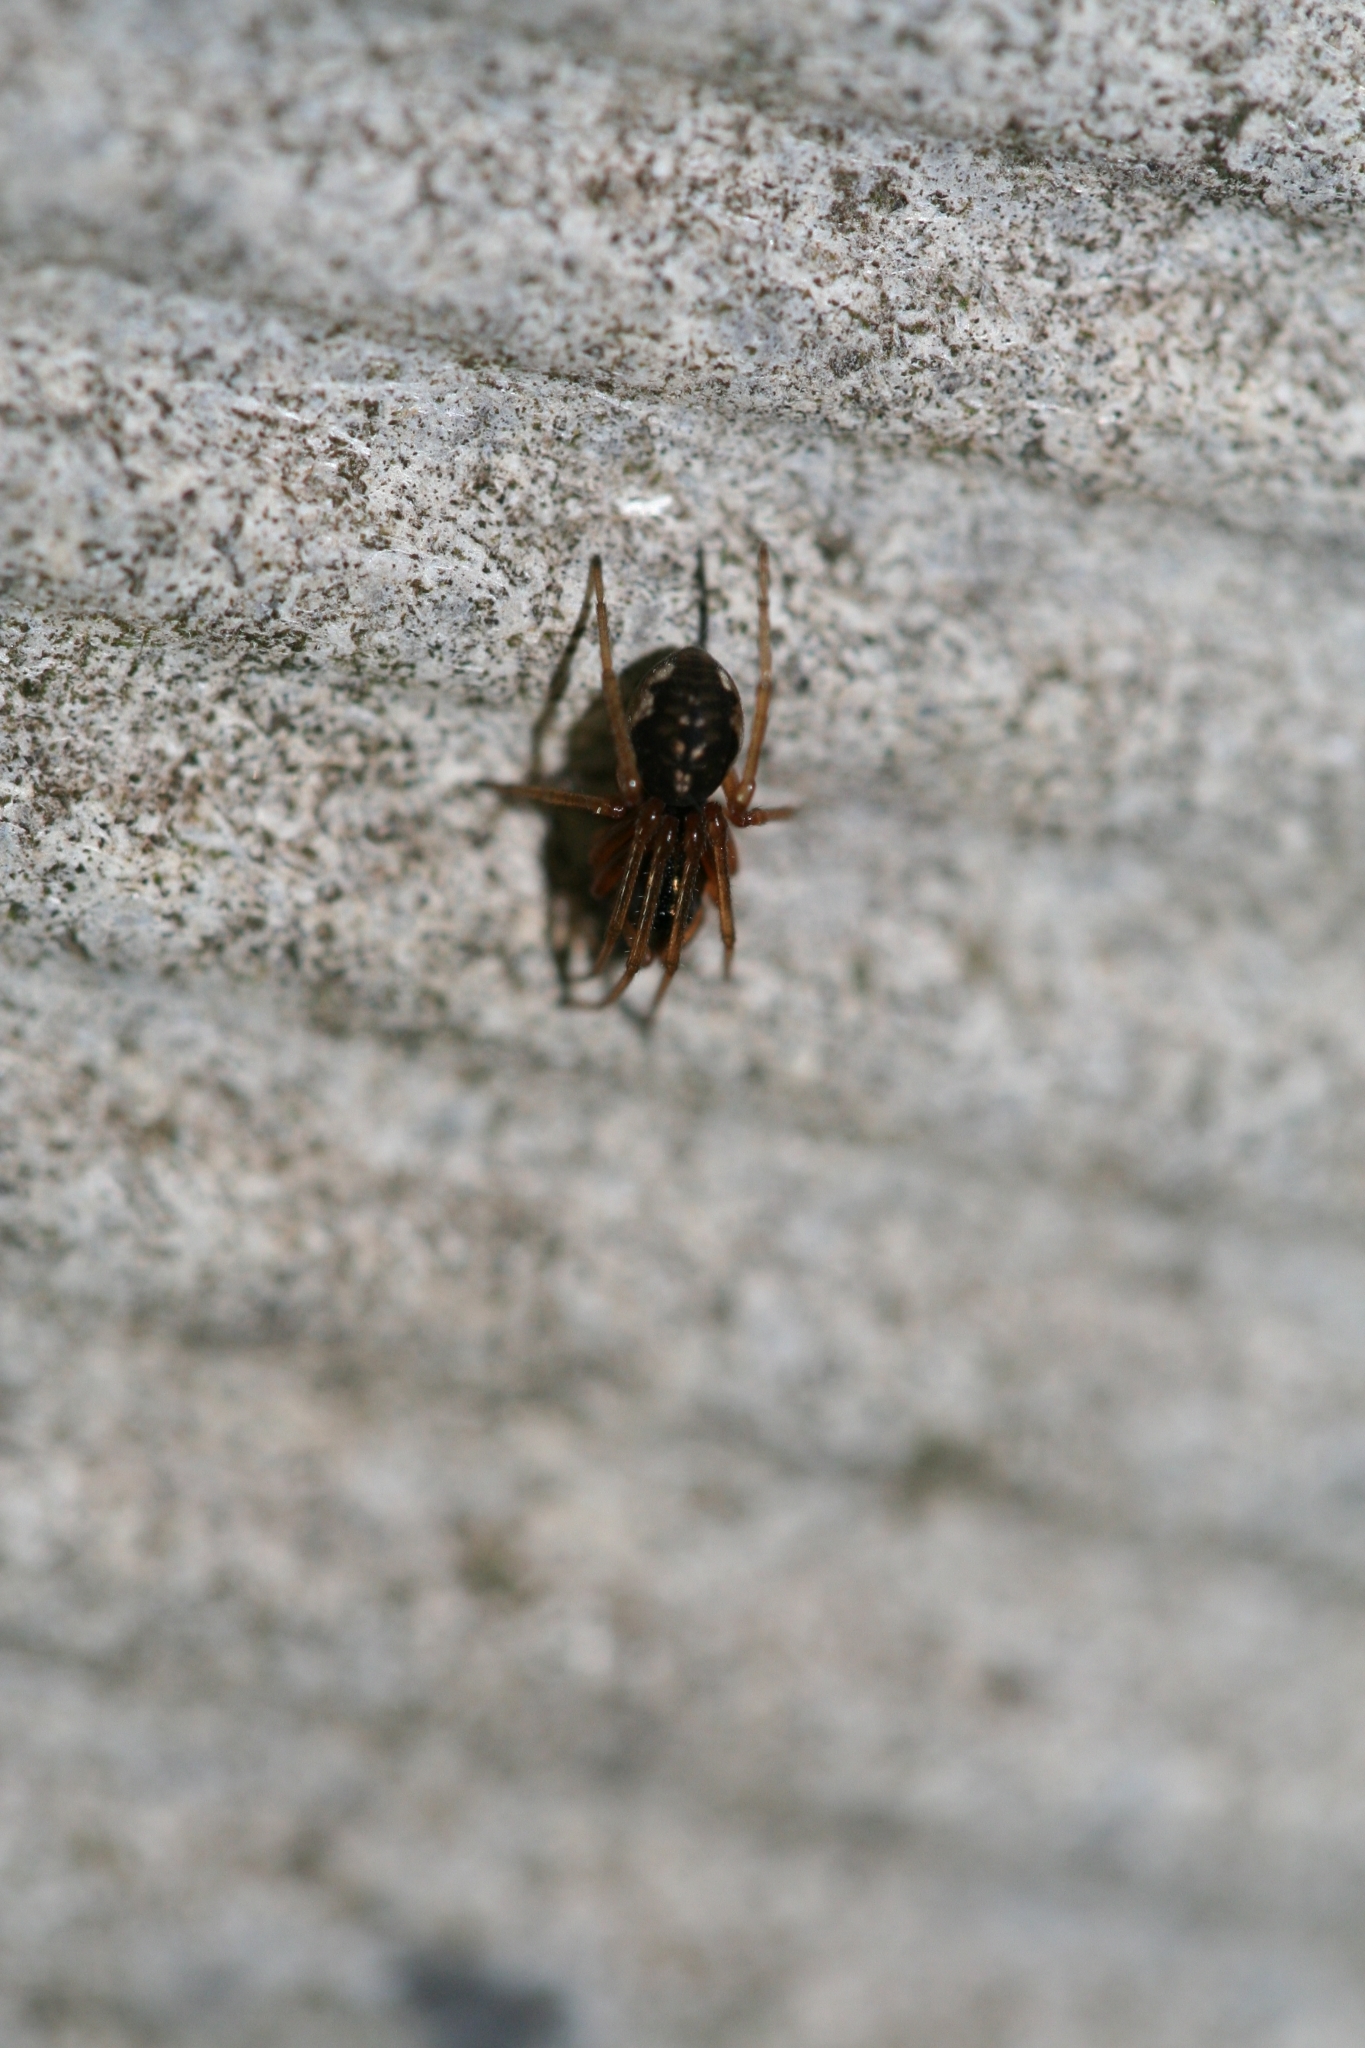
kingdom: Animalia
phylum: Arthropoda
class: Arachnida
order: Araneae
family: Tetragnathidae
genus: Pachygnatha
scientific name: Pachygnatha degeeri
